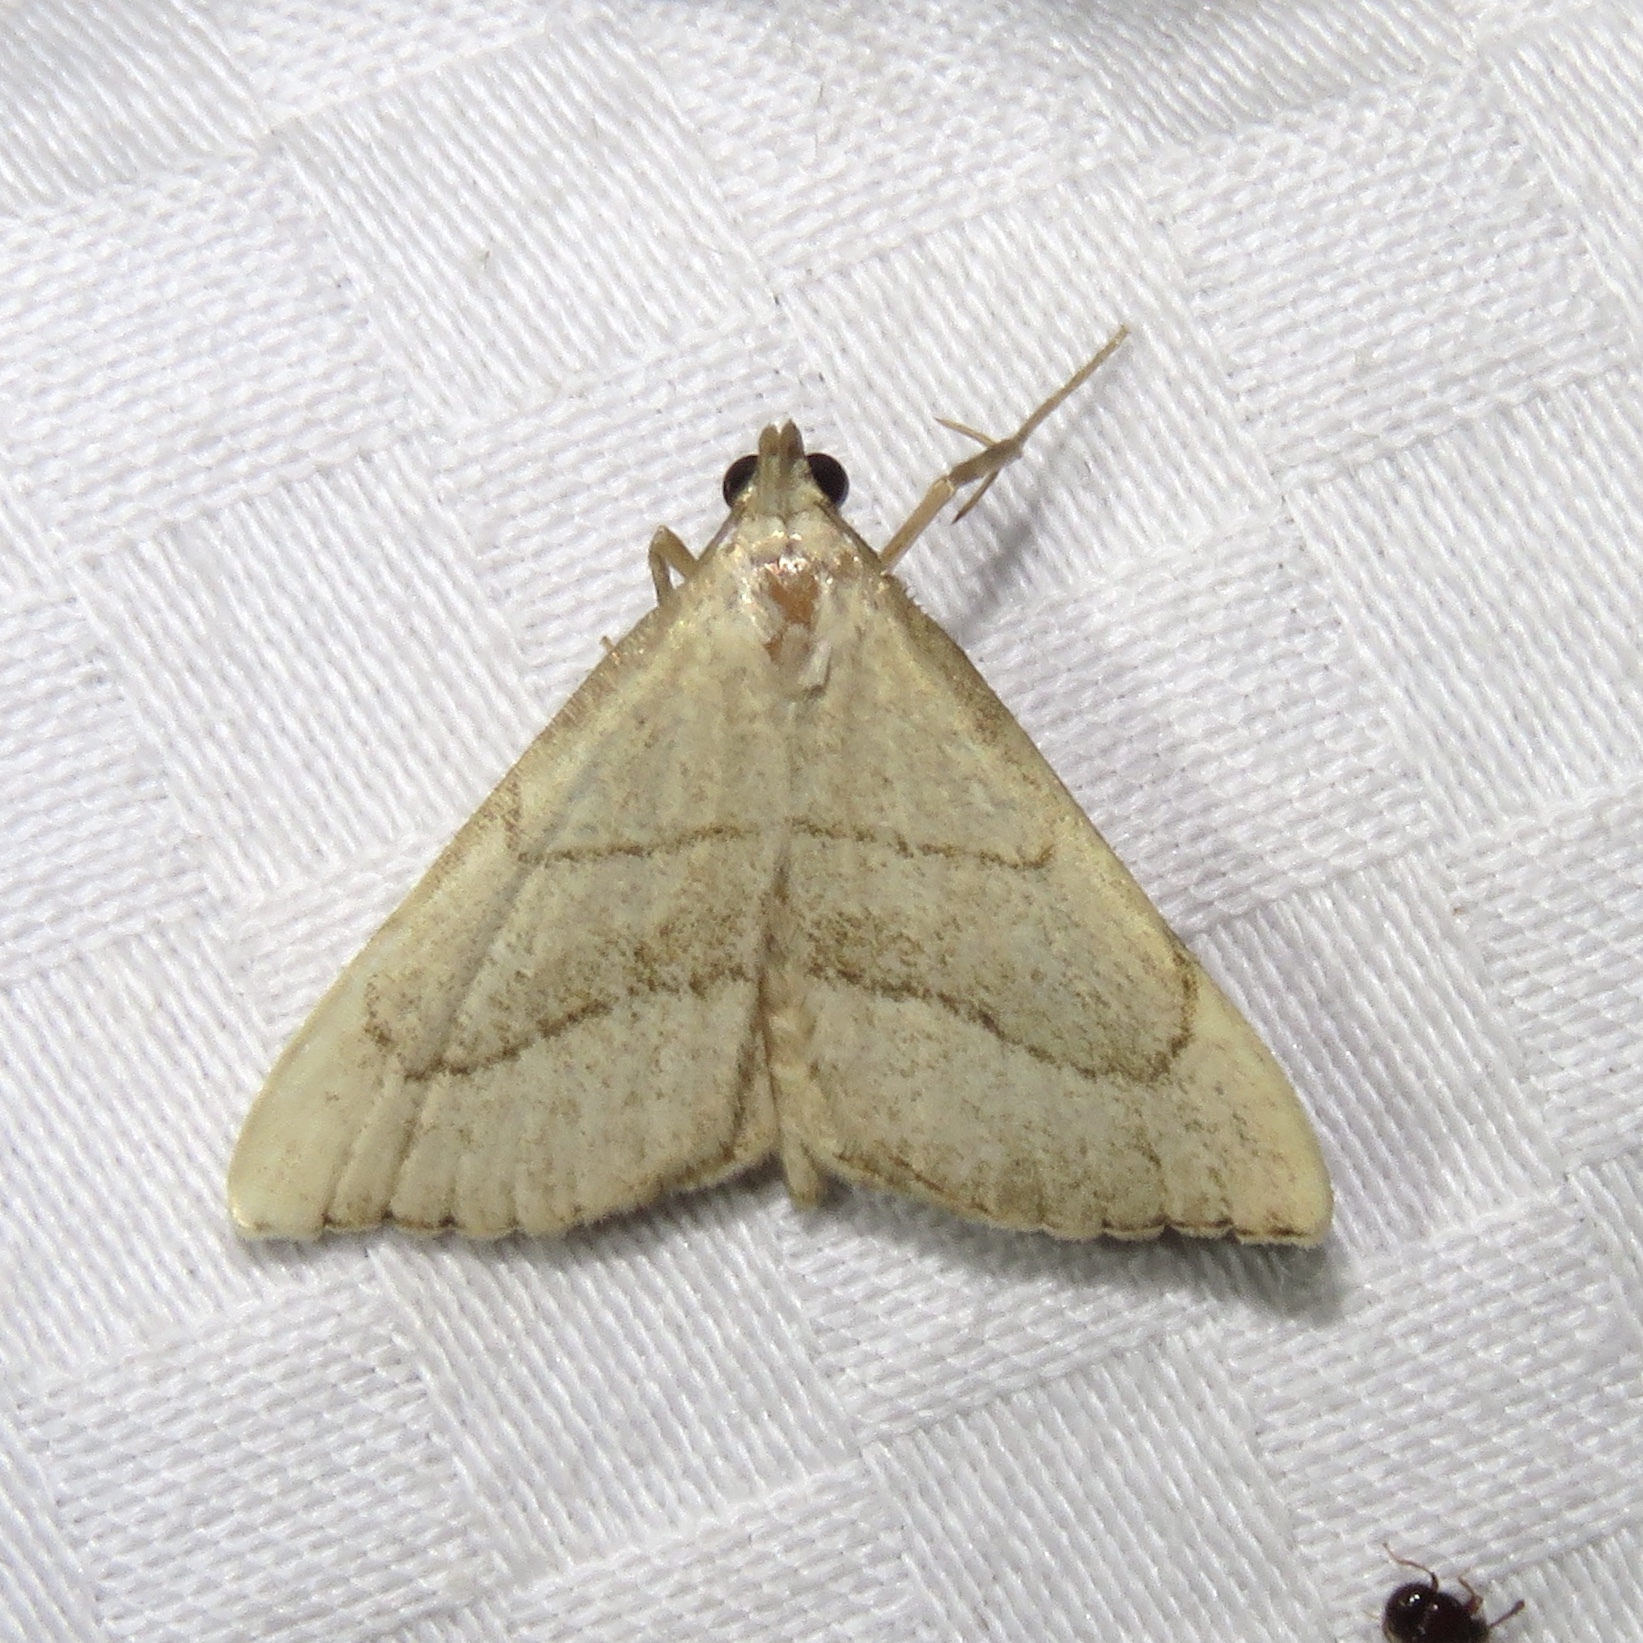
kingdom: Animalia
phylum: Arthropoda
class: Insecta
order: Lepidoptera
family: Erebidae
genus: Macrochilo
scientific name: Macrochilo litophora
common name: Brown-lined owlet
